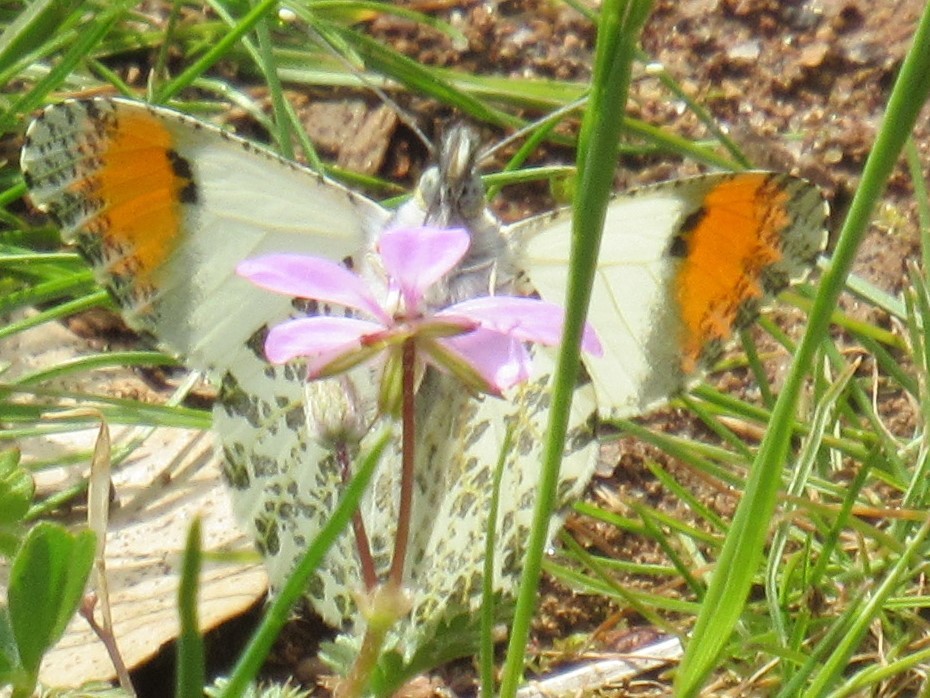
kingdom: Animalia
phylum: Arthropoda
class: Insecta
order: Lepidoptera
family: Pieridae
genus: Anthocharis
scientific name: Anthocharis sara
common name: Sara's orangetip
